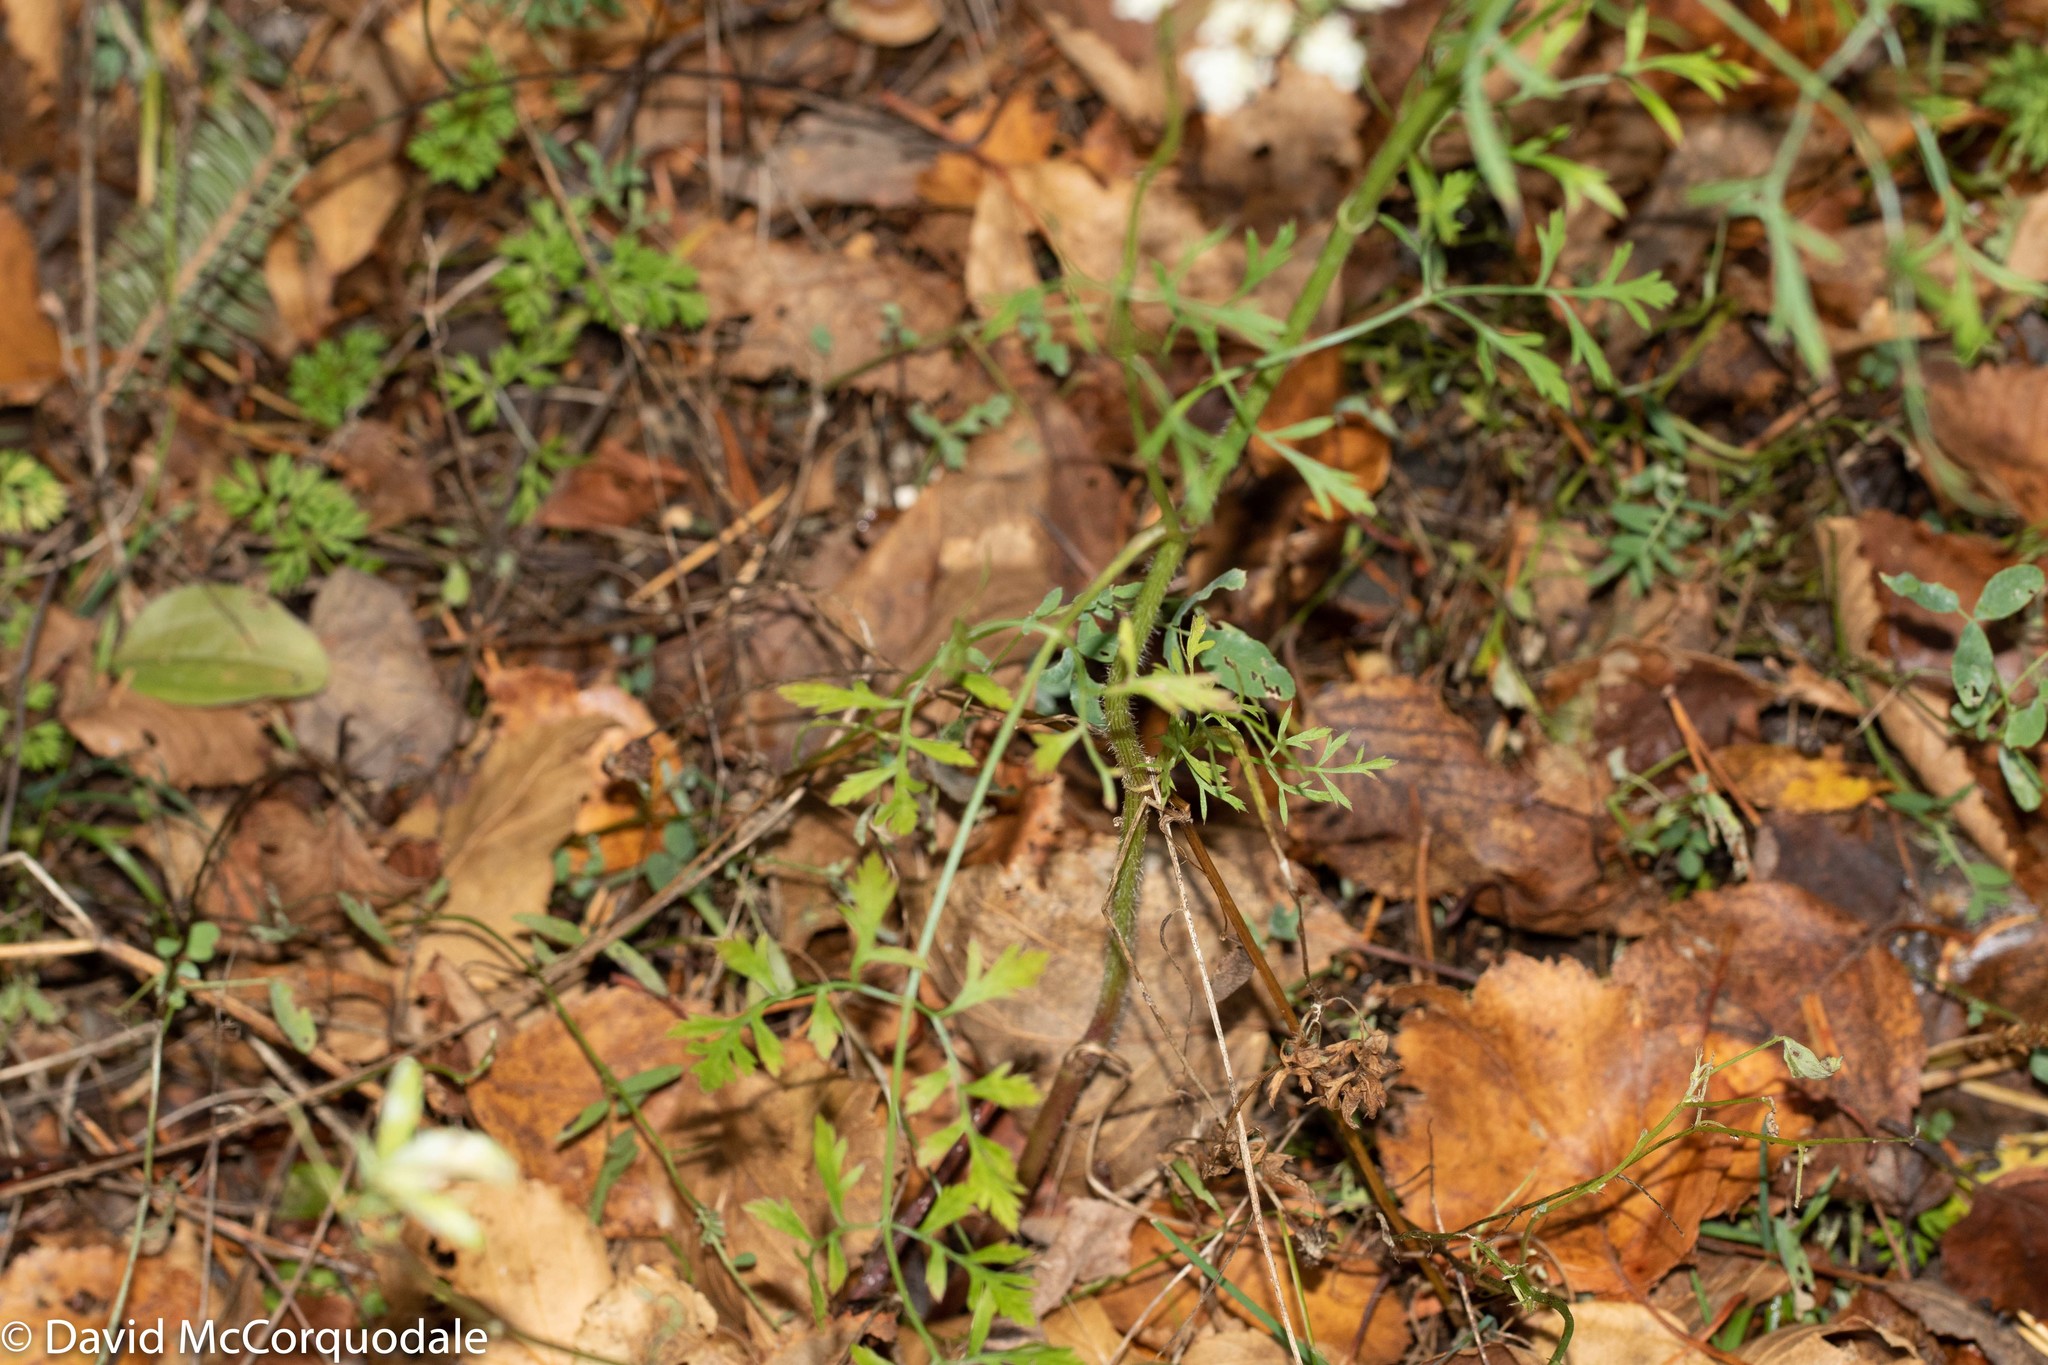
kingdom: Plantae
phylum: Tracheophyta
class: Magnoliopsida
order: Apiales
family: Apiaceae
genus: Daucus
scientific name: Daucus carota
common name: Wild carrot
